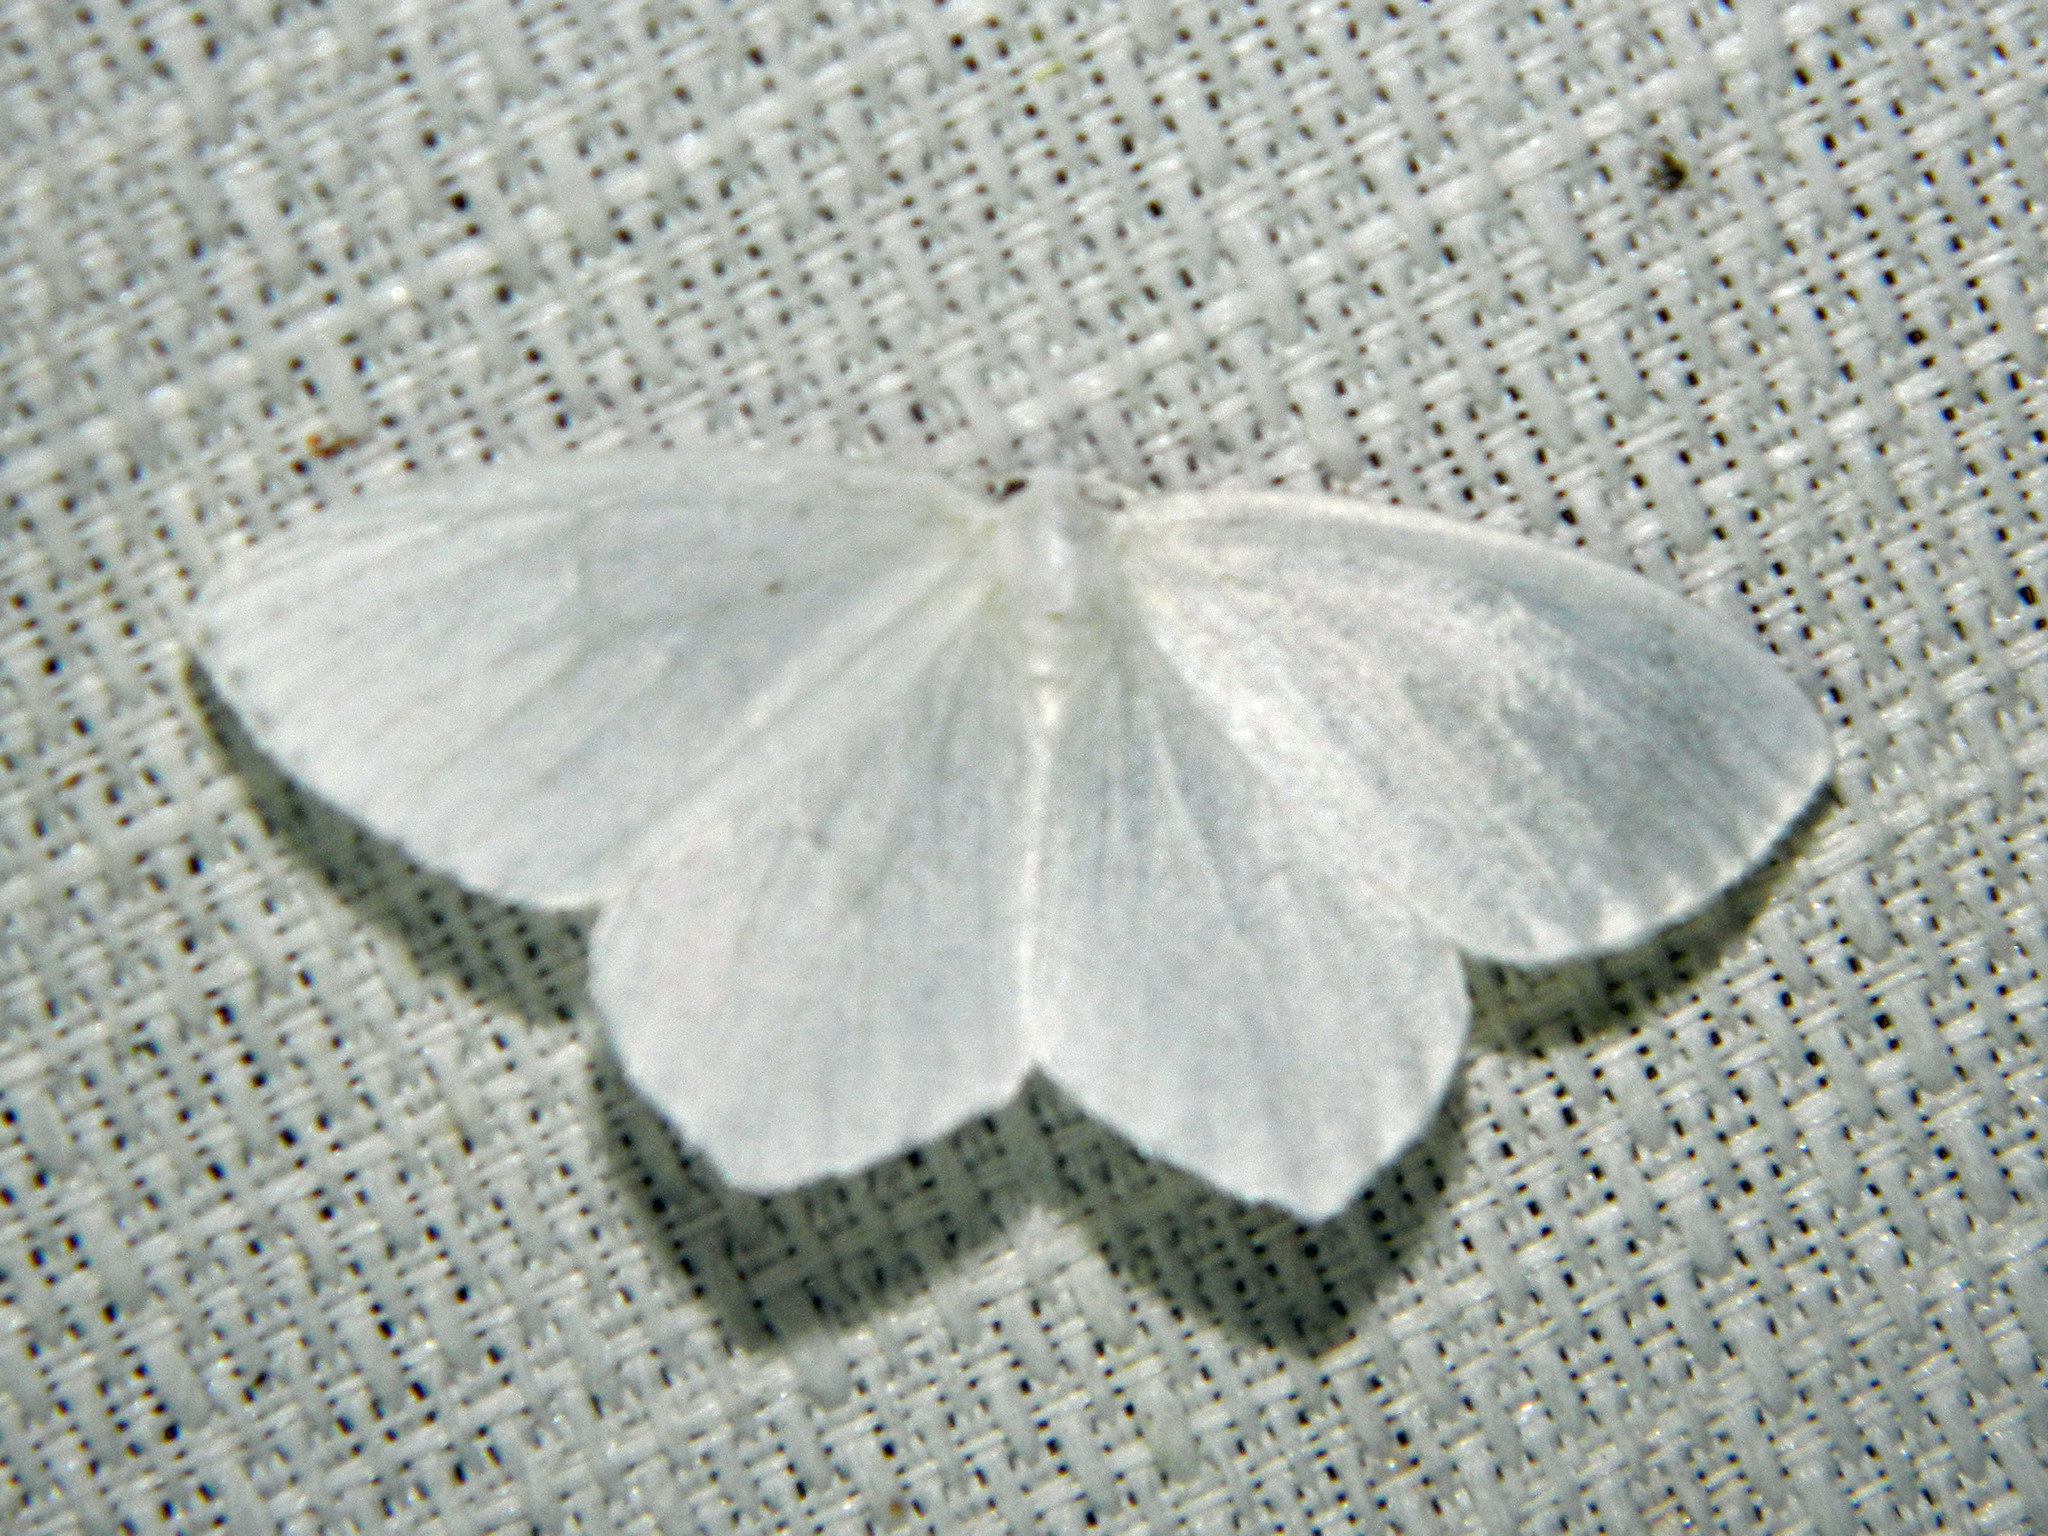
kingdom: Animalia
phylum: Arthropoda
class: Insecta
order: Lepidoptera
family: Geometridae
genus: Eugonobapta
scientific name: Eugonobapta nivosaria
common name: Snowy geometer
